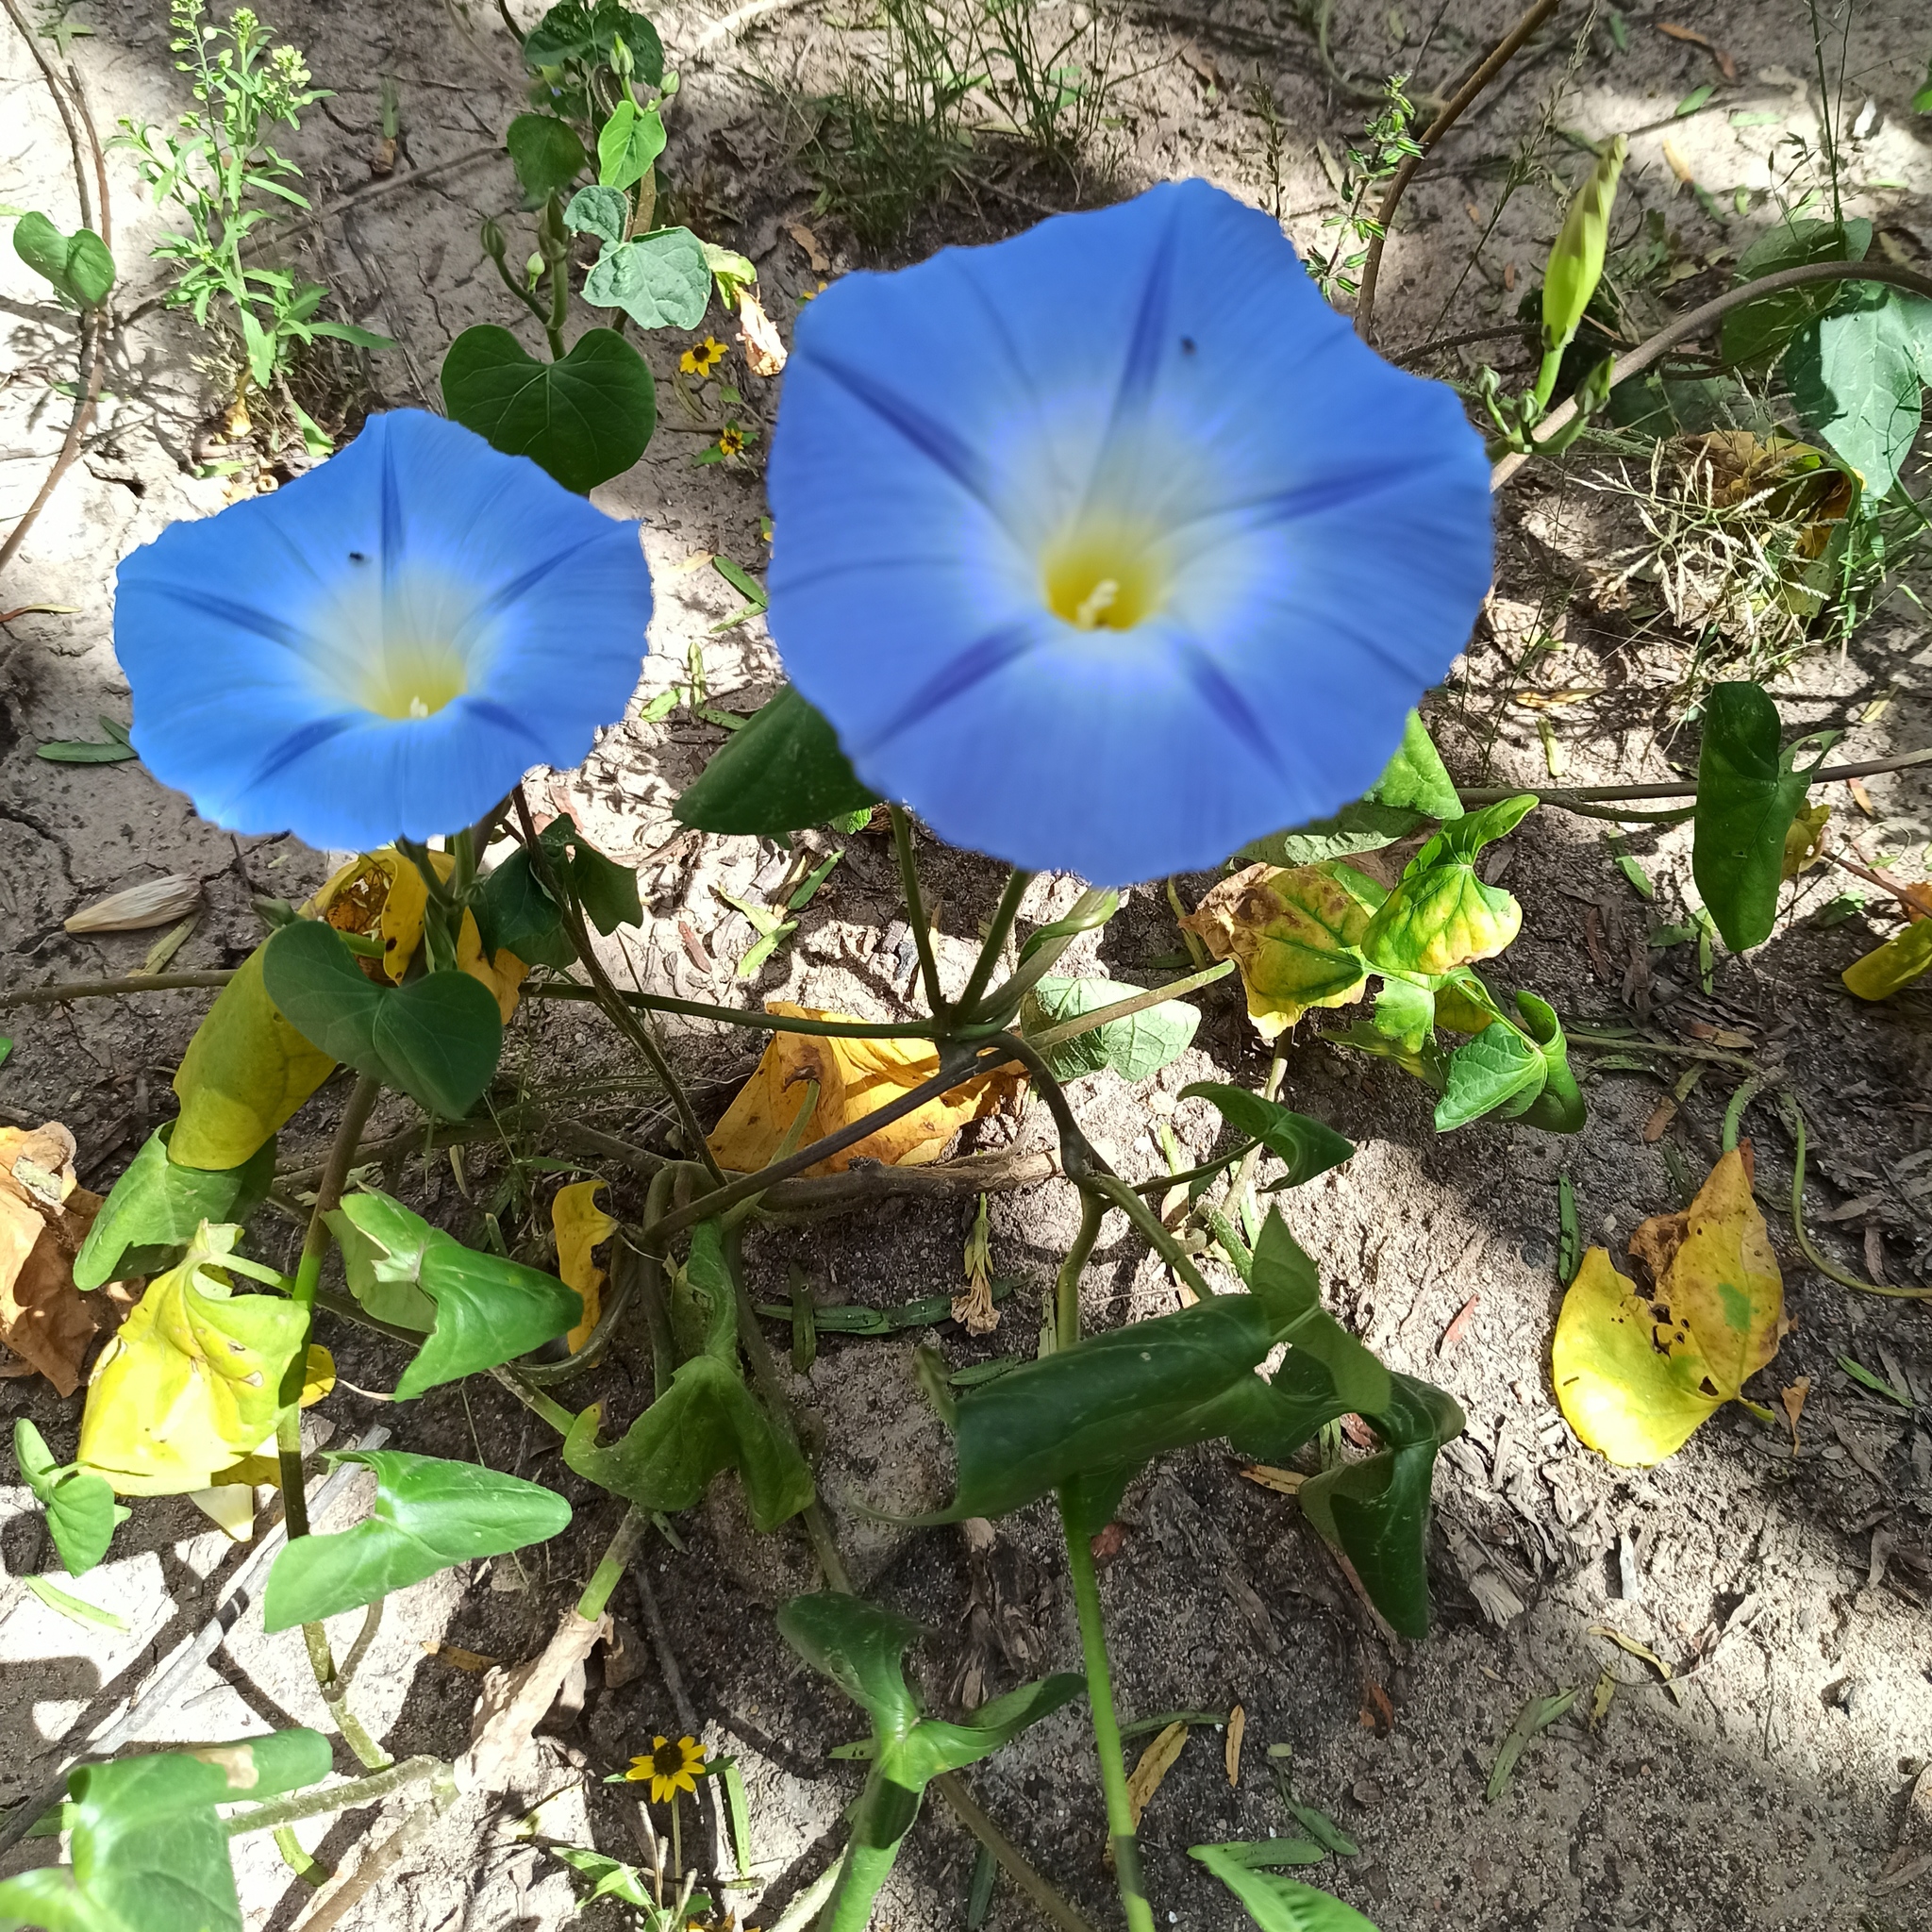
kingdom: Plantae
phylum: Tracheophyta
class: Magnoliopsida
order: Solanales
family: Convolvulaceae
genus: Ipomoea
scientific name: Ipomoea tricolor
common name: Morning-glory
